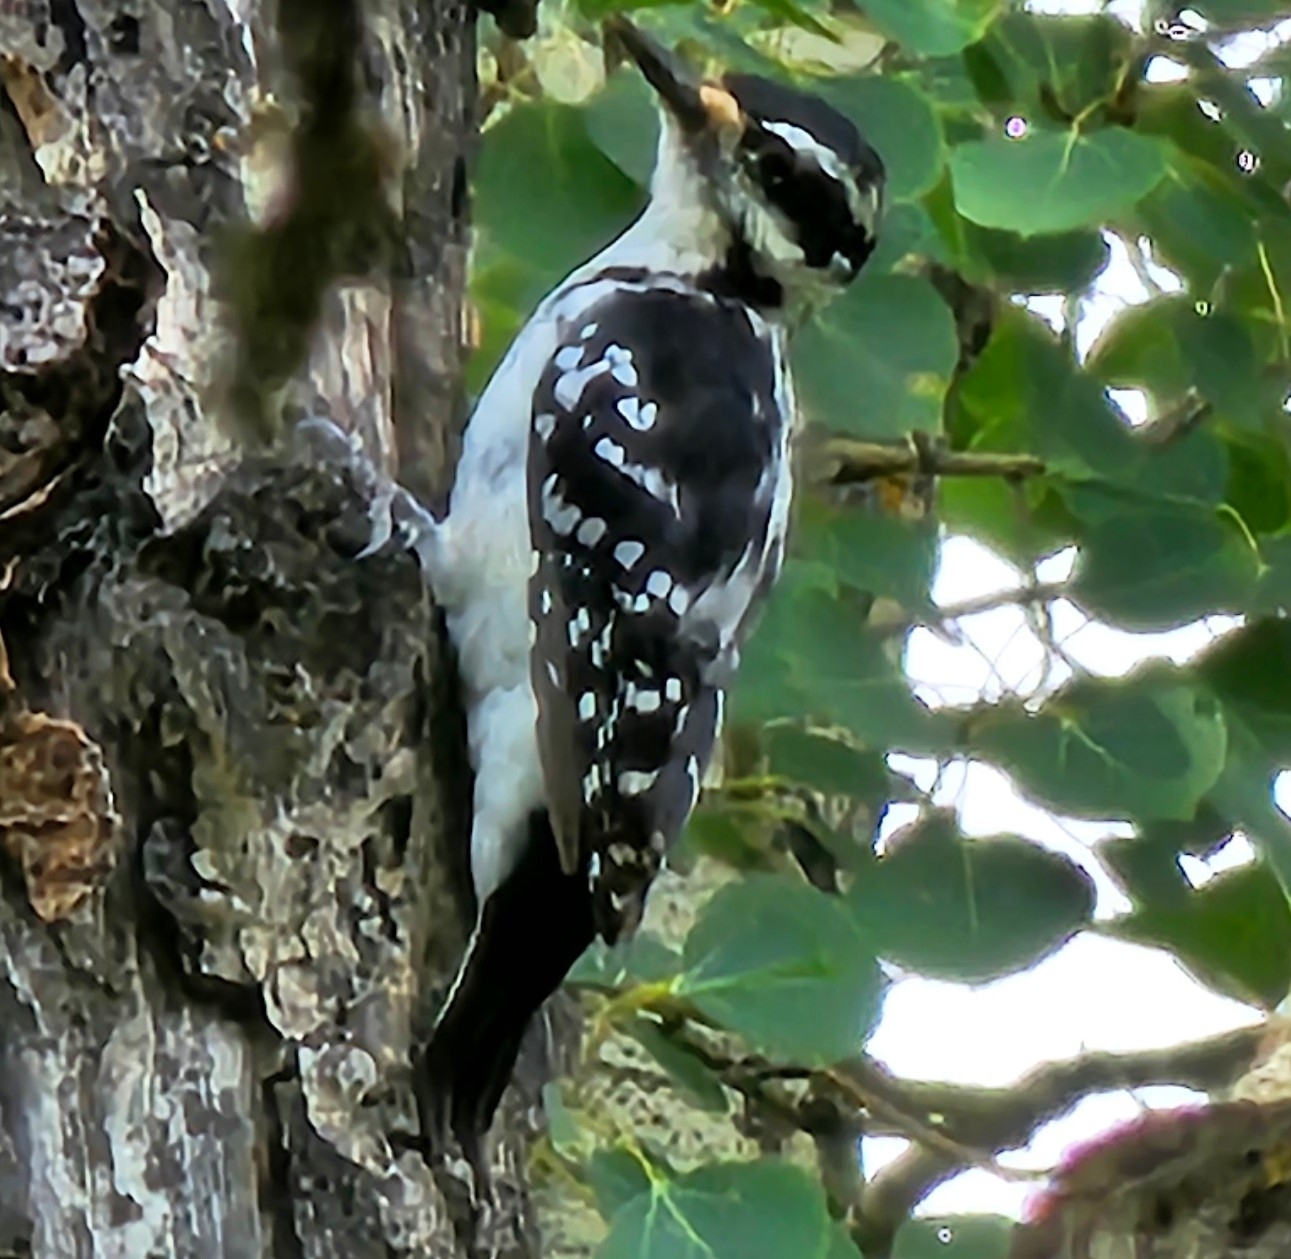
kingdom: Animalia
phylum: Chordata
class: Aves
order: Piciformes
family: Picidae
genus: Leuconotopicus
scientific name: Leuconotopicus villosus
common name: Hairy woodpecker
